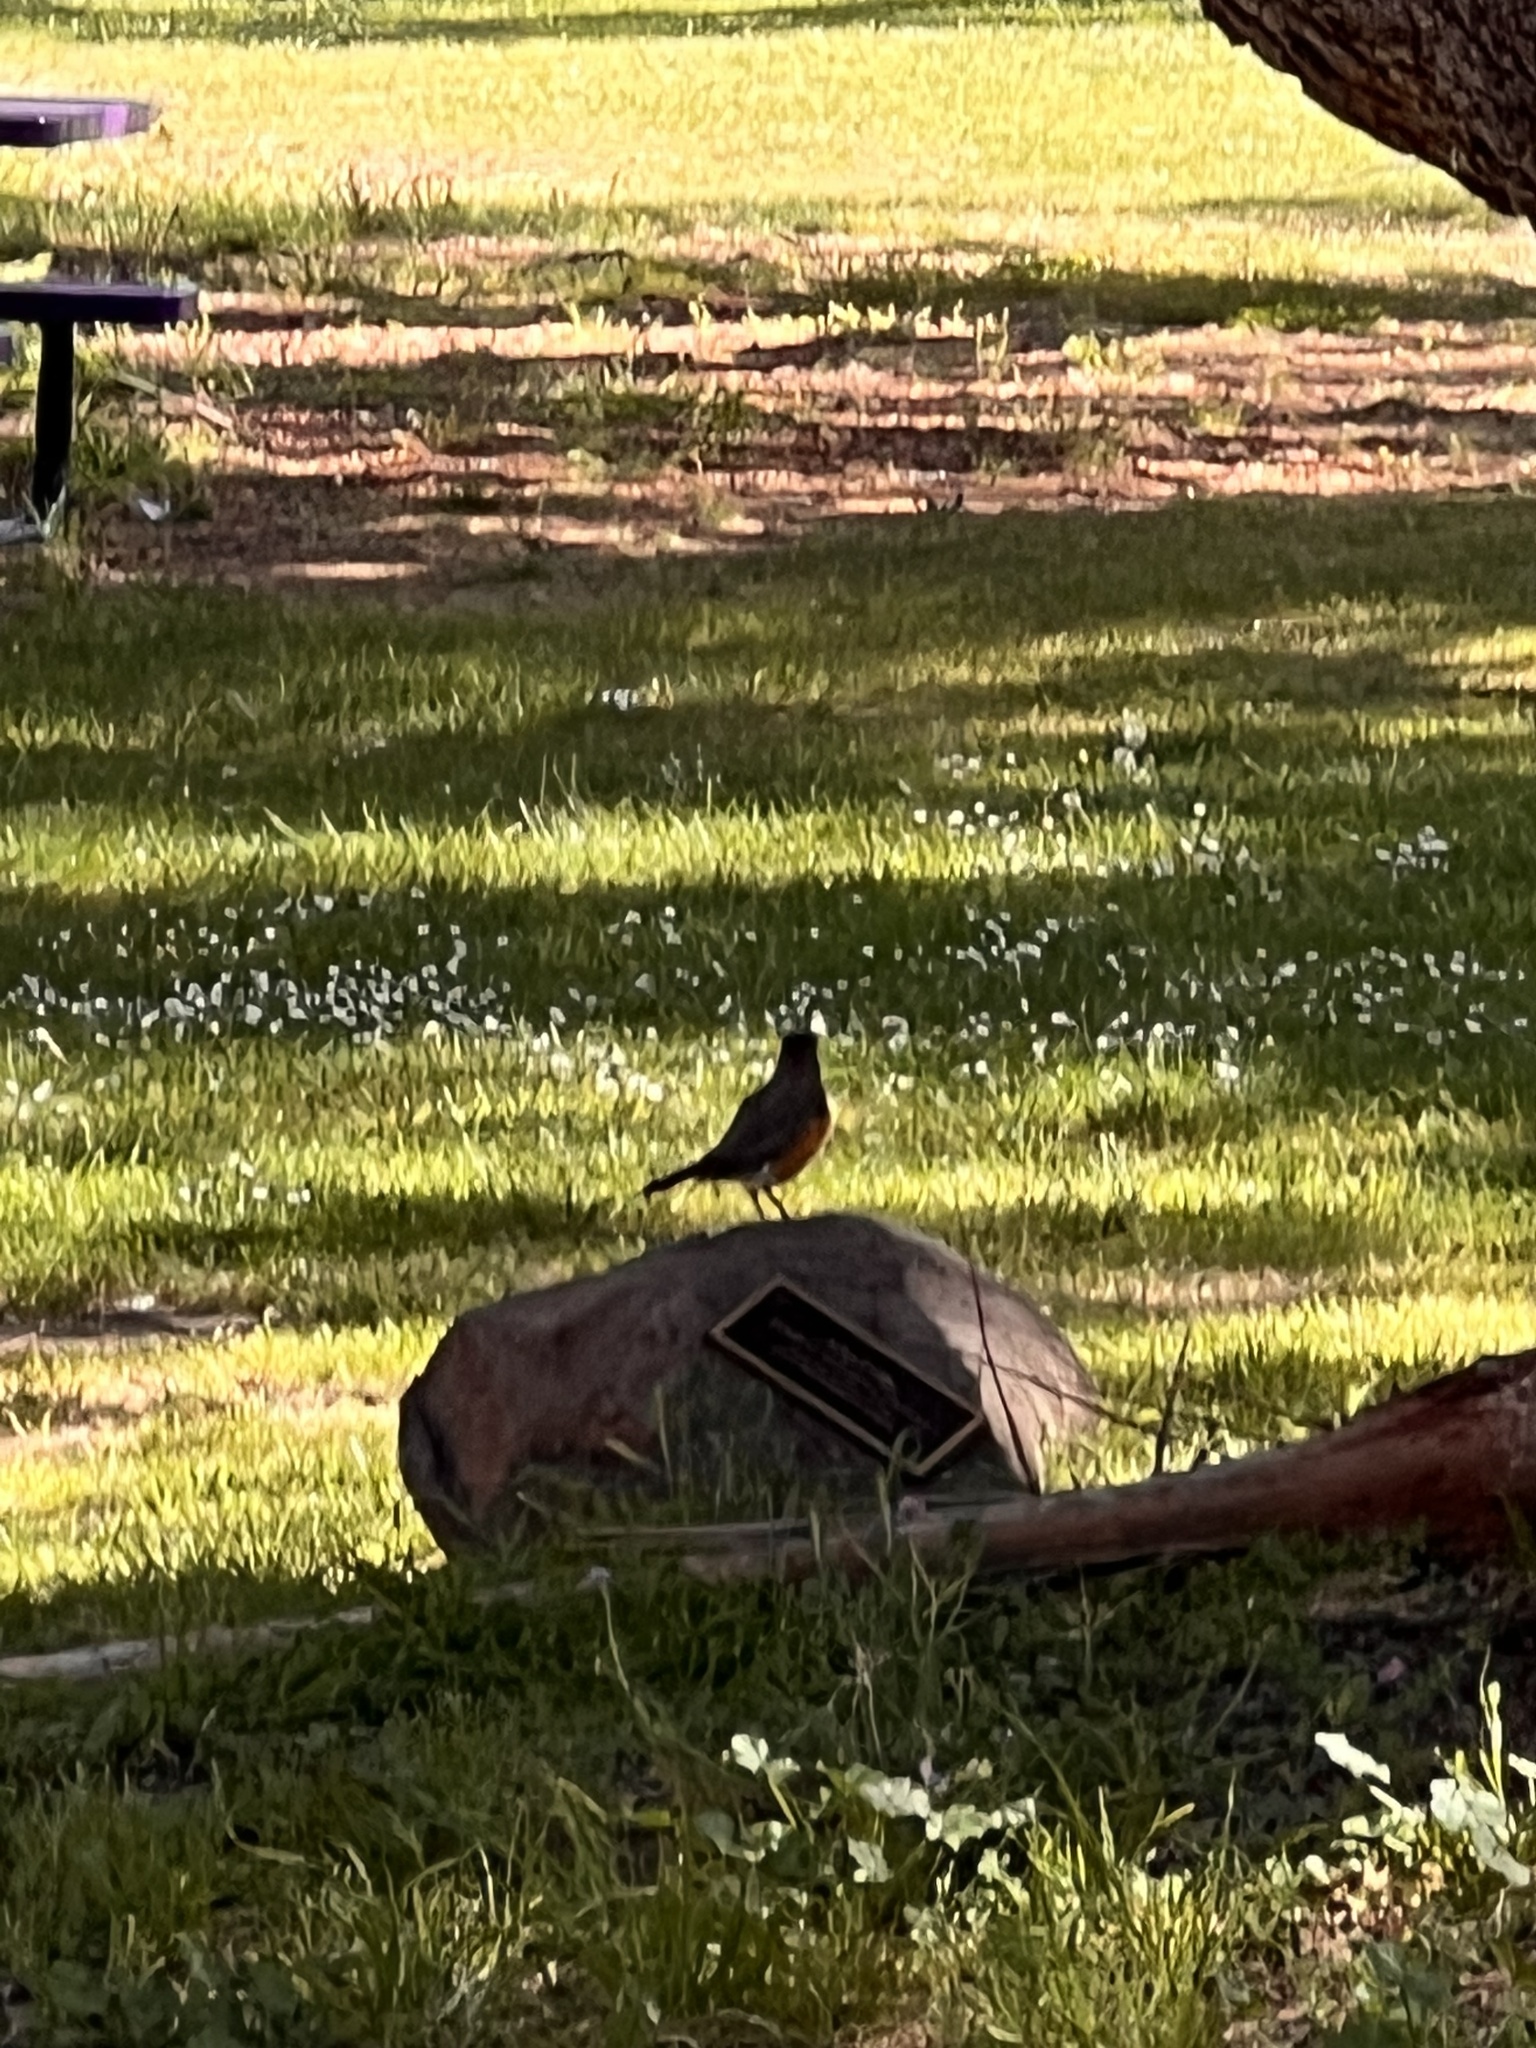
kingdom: Animalia
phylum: Chordata
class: Aves
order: Passeriformes
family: Turdidae
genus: Turdus
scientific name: Turdus migratorius
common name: American robin
